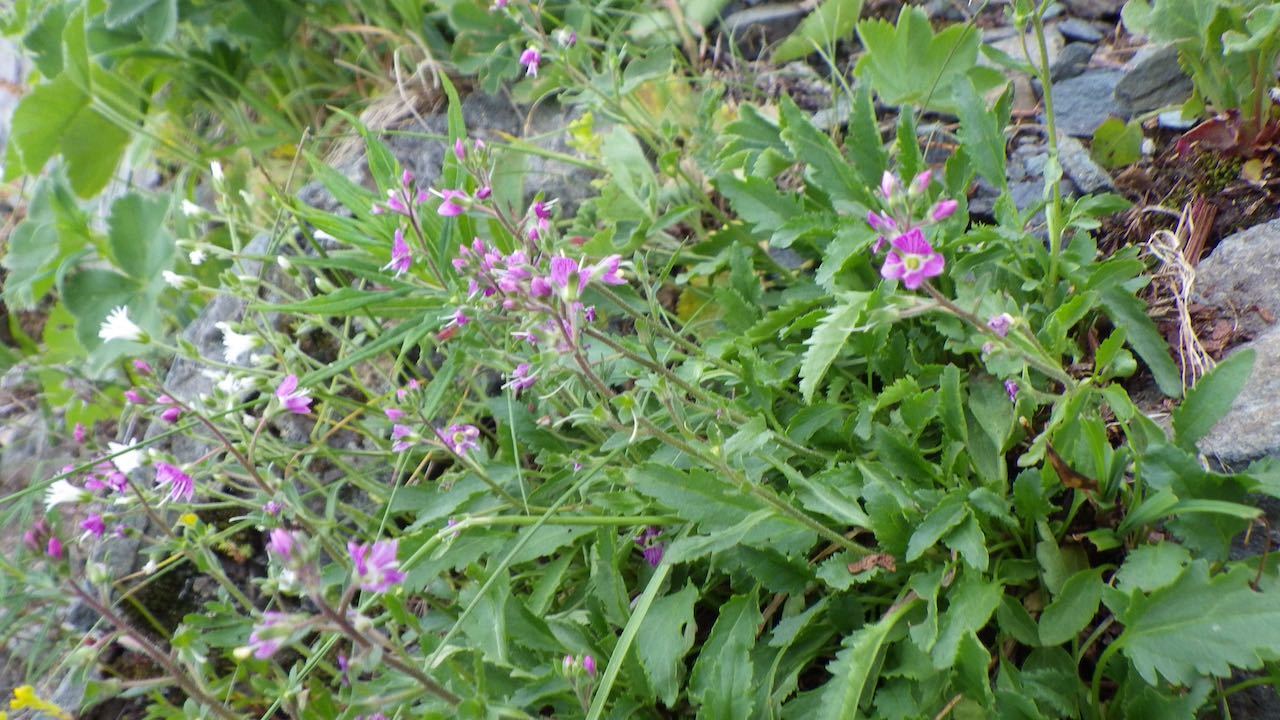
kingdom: Plantae
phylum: Tracheophyta
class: Magnoliopsida
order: Lamiales
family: Plantaginaceae
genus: Veronica
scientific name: Veronica schmidtiana
